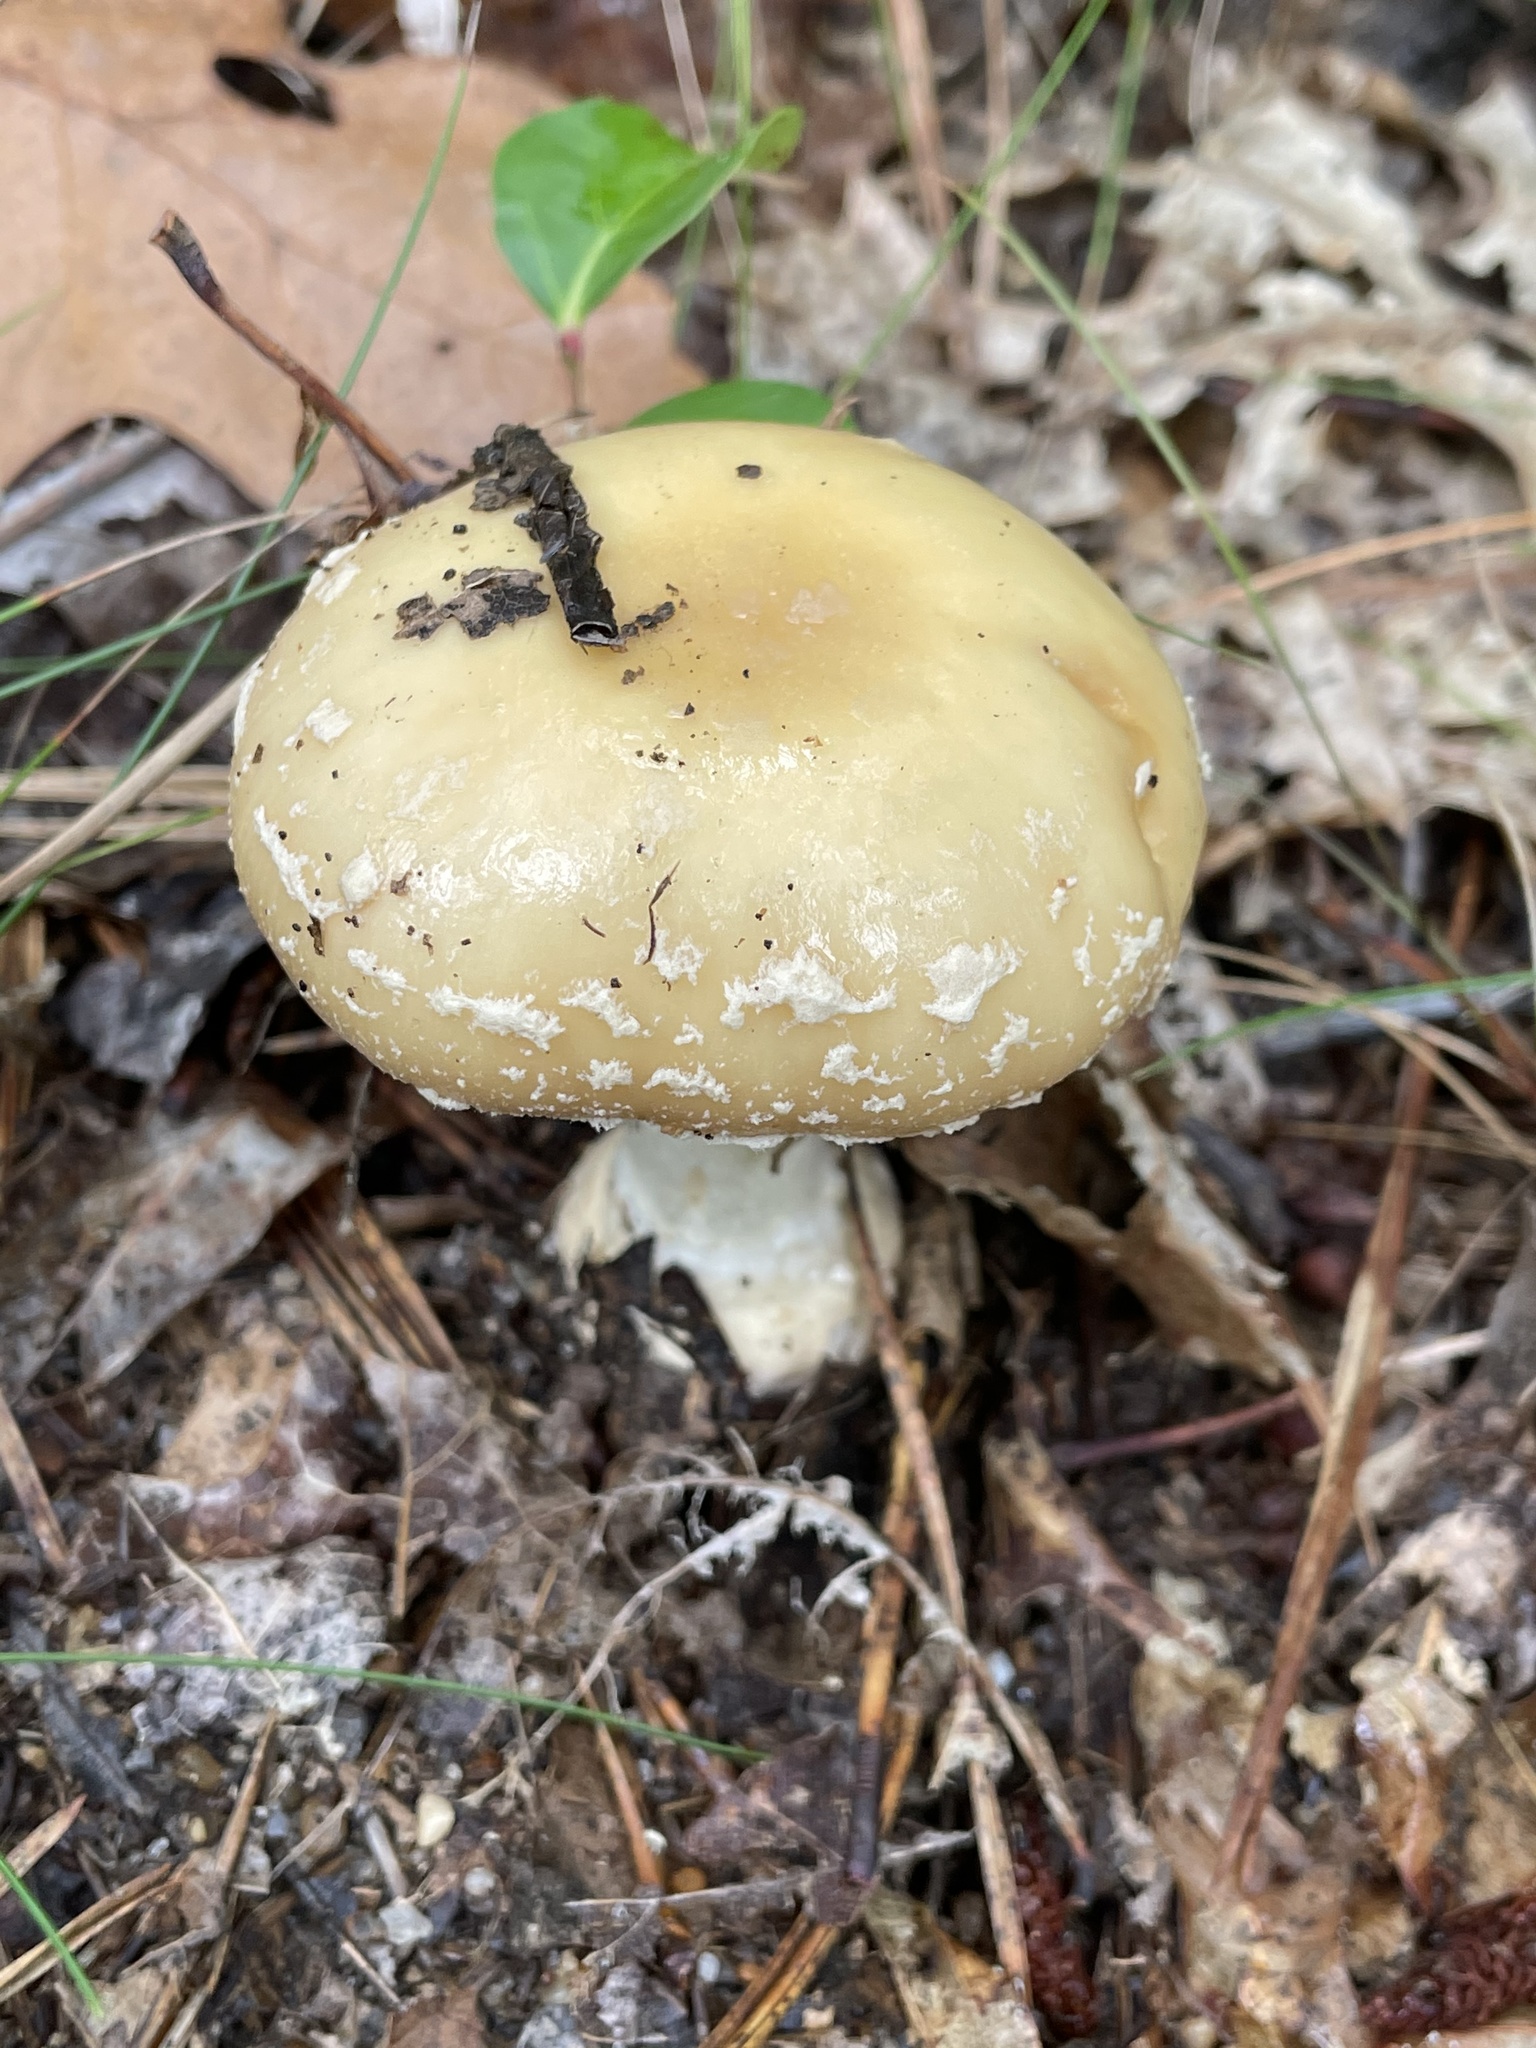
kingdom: Fungi
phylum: Basidiomycota
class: Agaricomycetes
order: Agaricales
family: Amanitaceae
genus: Amanita
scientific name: Amanita crenulata
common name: Poison champagne amanita
